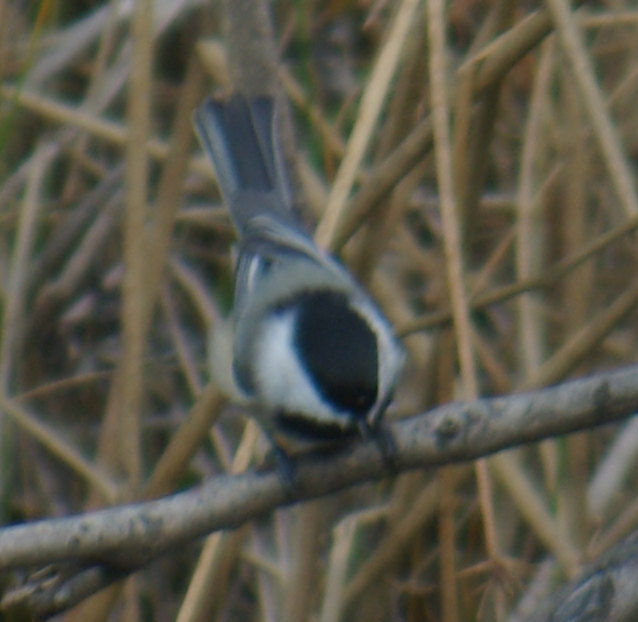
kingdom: Animalia
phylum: Chordata
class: Aves
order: Passeriformes
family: Paridae
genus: Poecile
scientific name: Poecile atricapillus
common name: Black-capped chickadee
